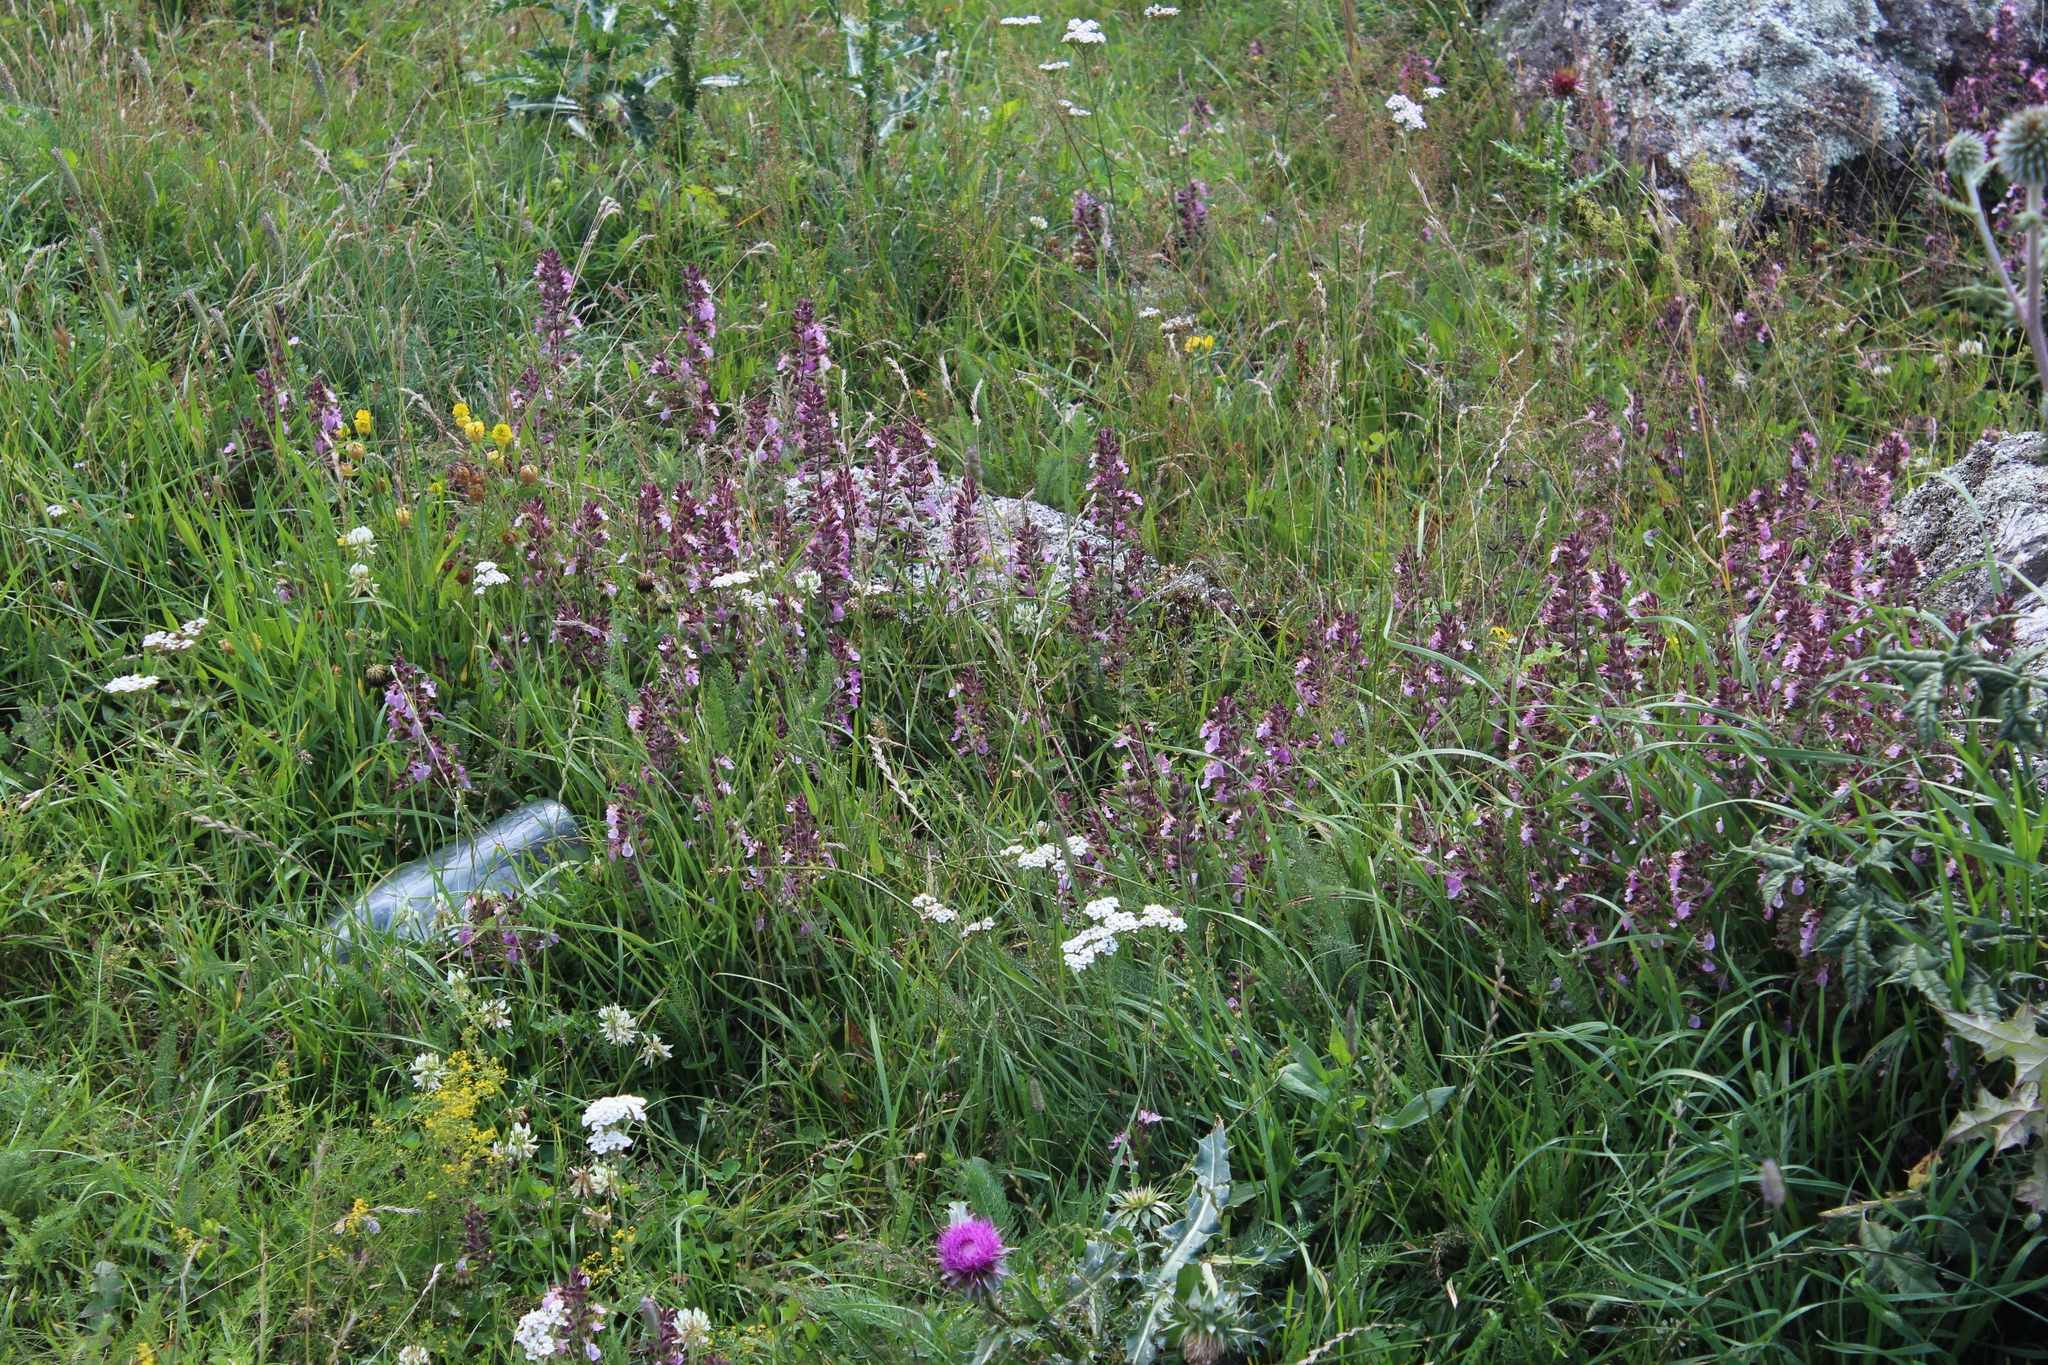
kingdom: Plantae
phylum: Tracheophyta
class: Magnoliopsida
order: Lamiales
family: Lamiaceae
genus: Teucrium
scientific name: Teucrium chamaedrys
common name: Wall germander
